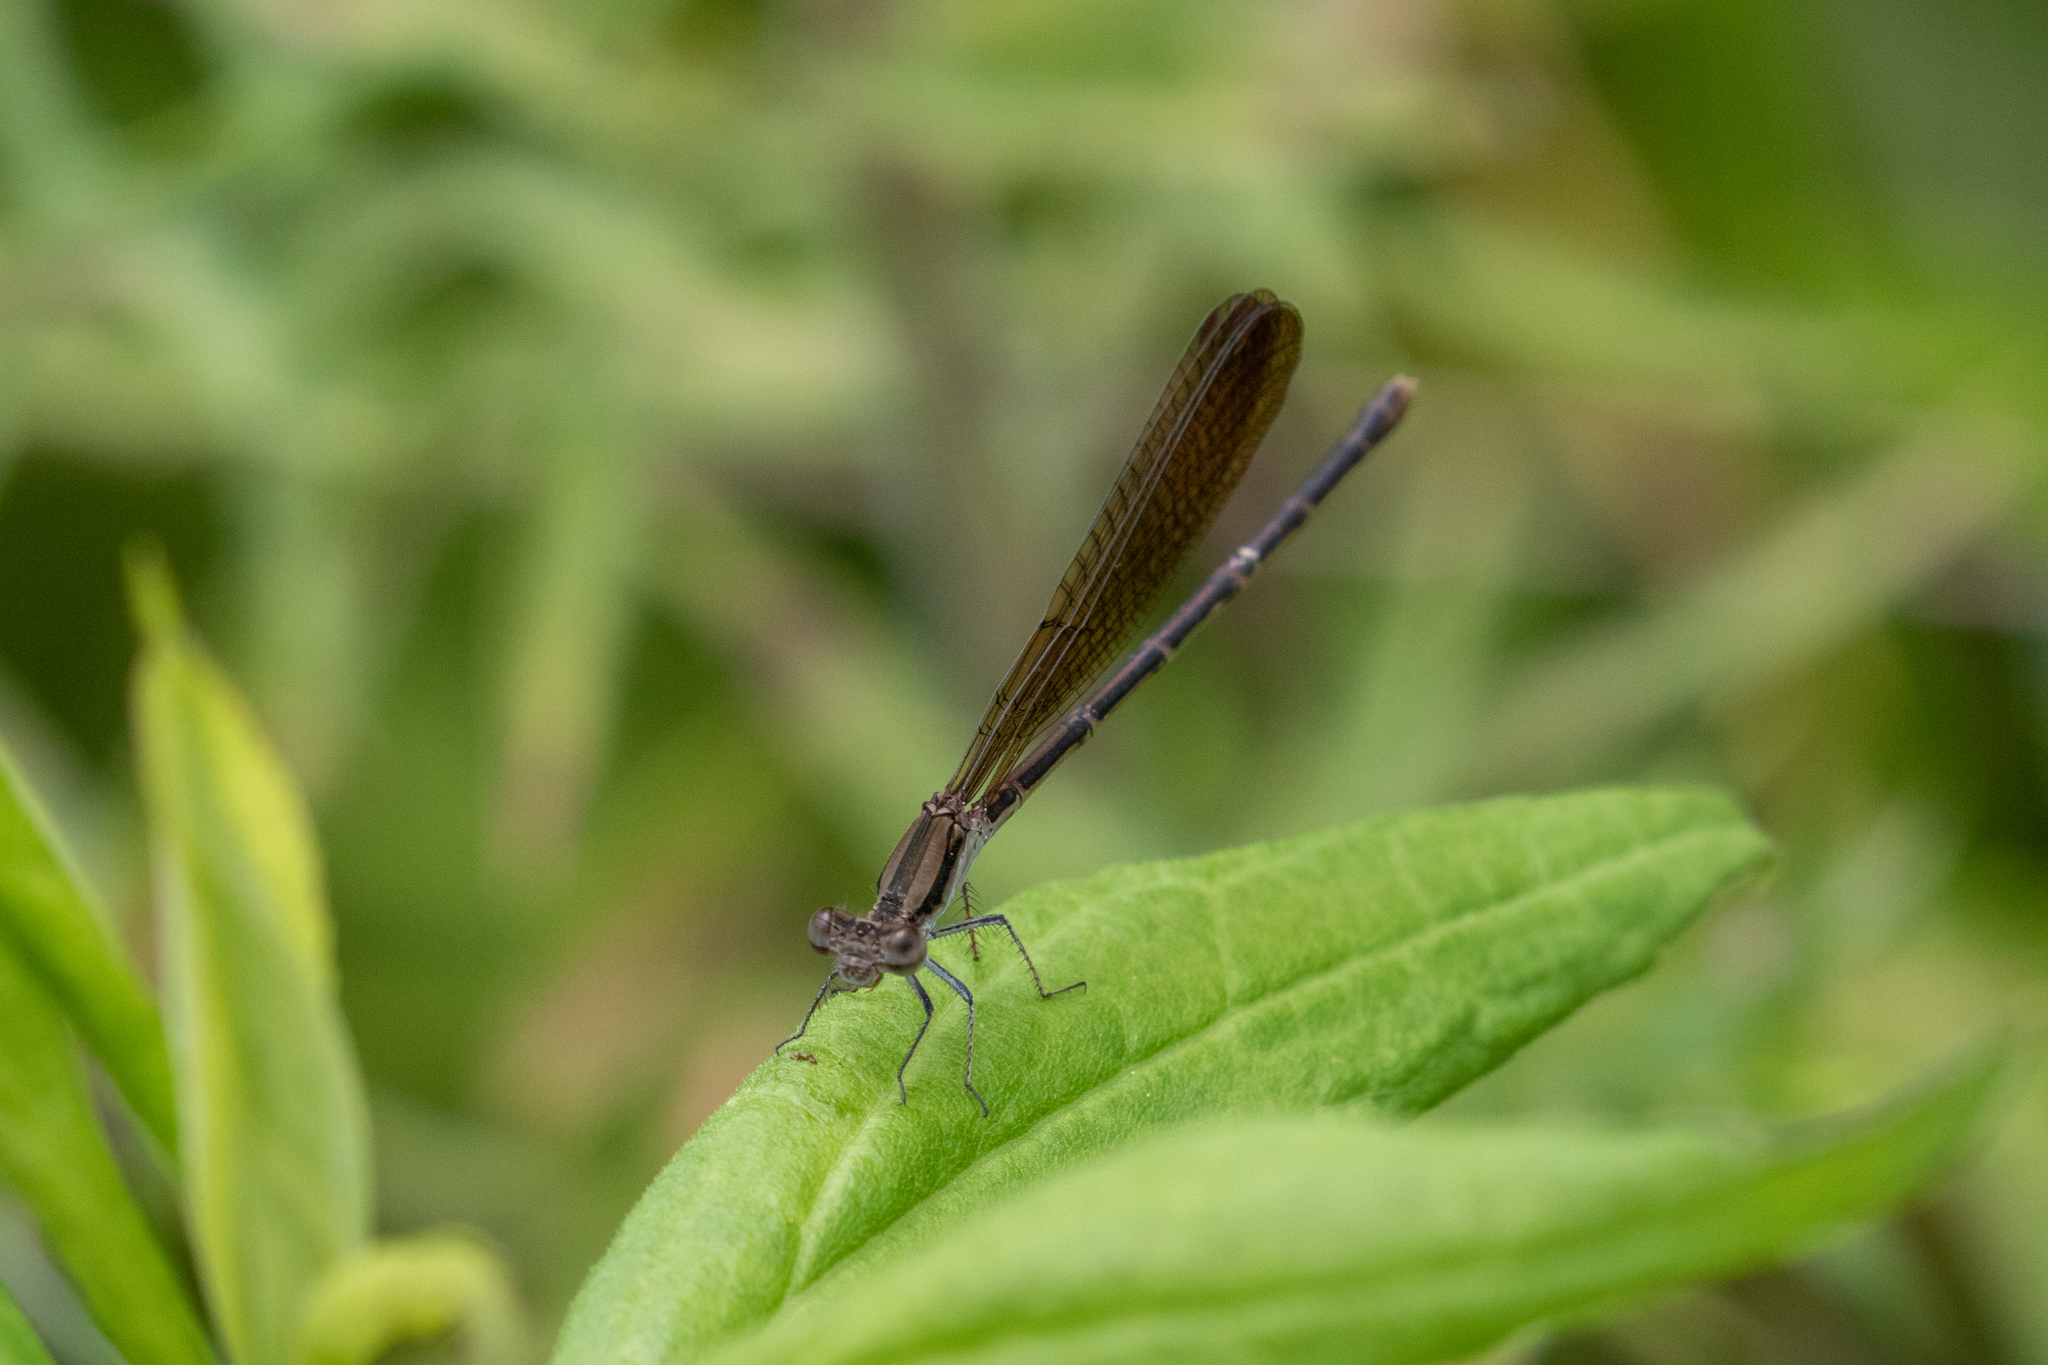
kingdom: Animalia
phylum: Arthropoda
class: Insecta
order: Odonata
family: Coenagrionidae
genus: Argia
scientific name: Argia fumipennis
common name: Variable dancer
